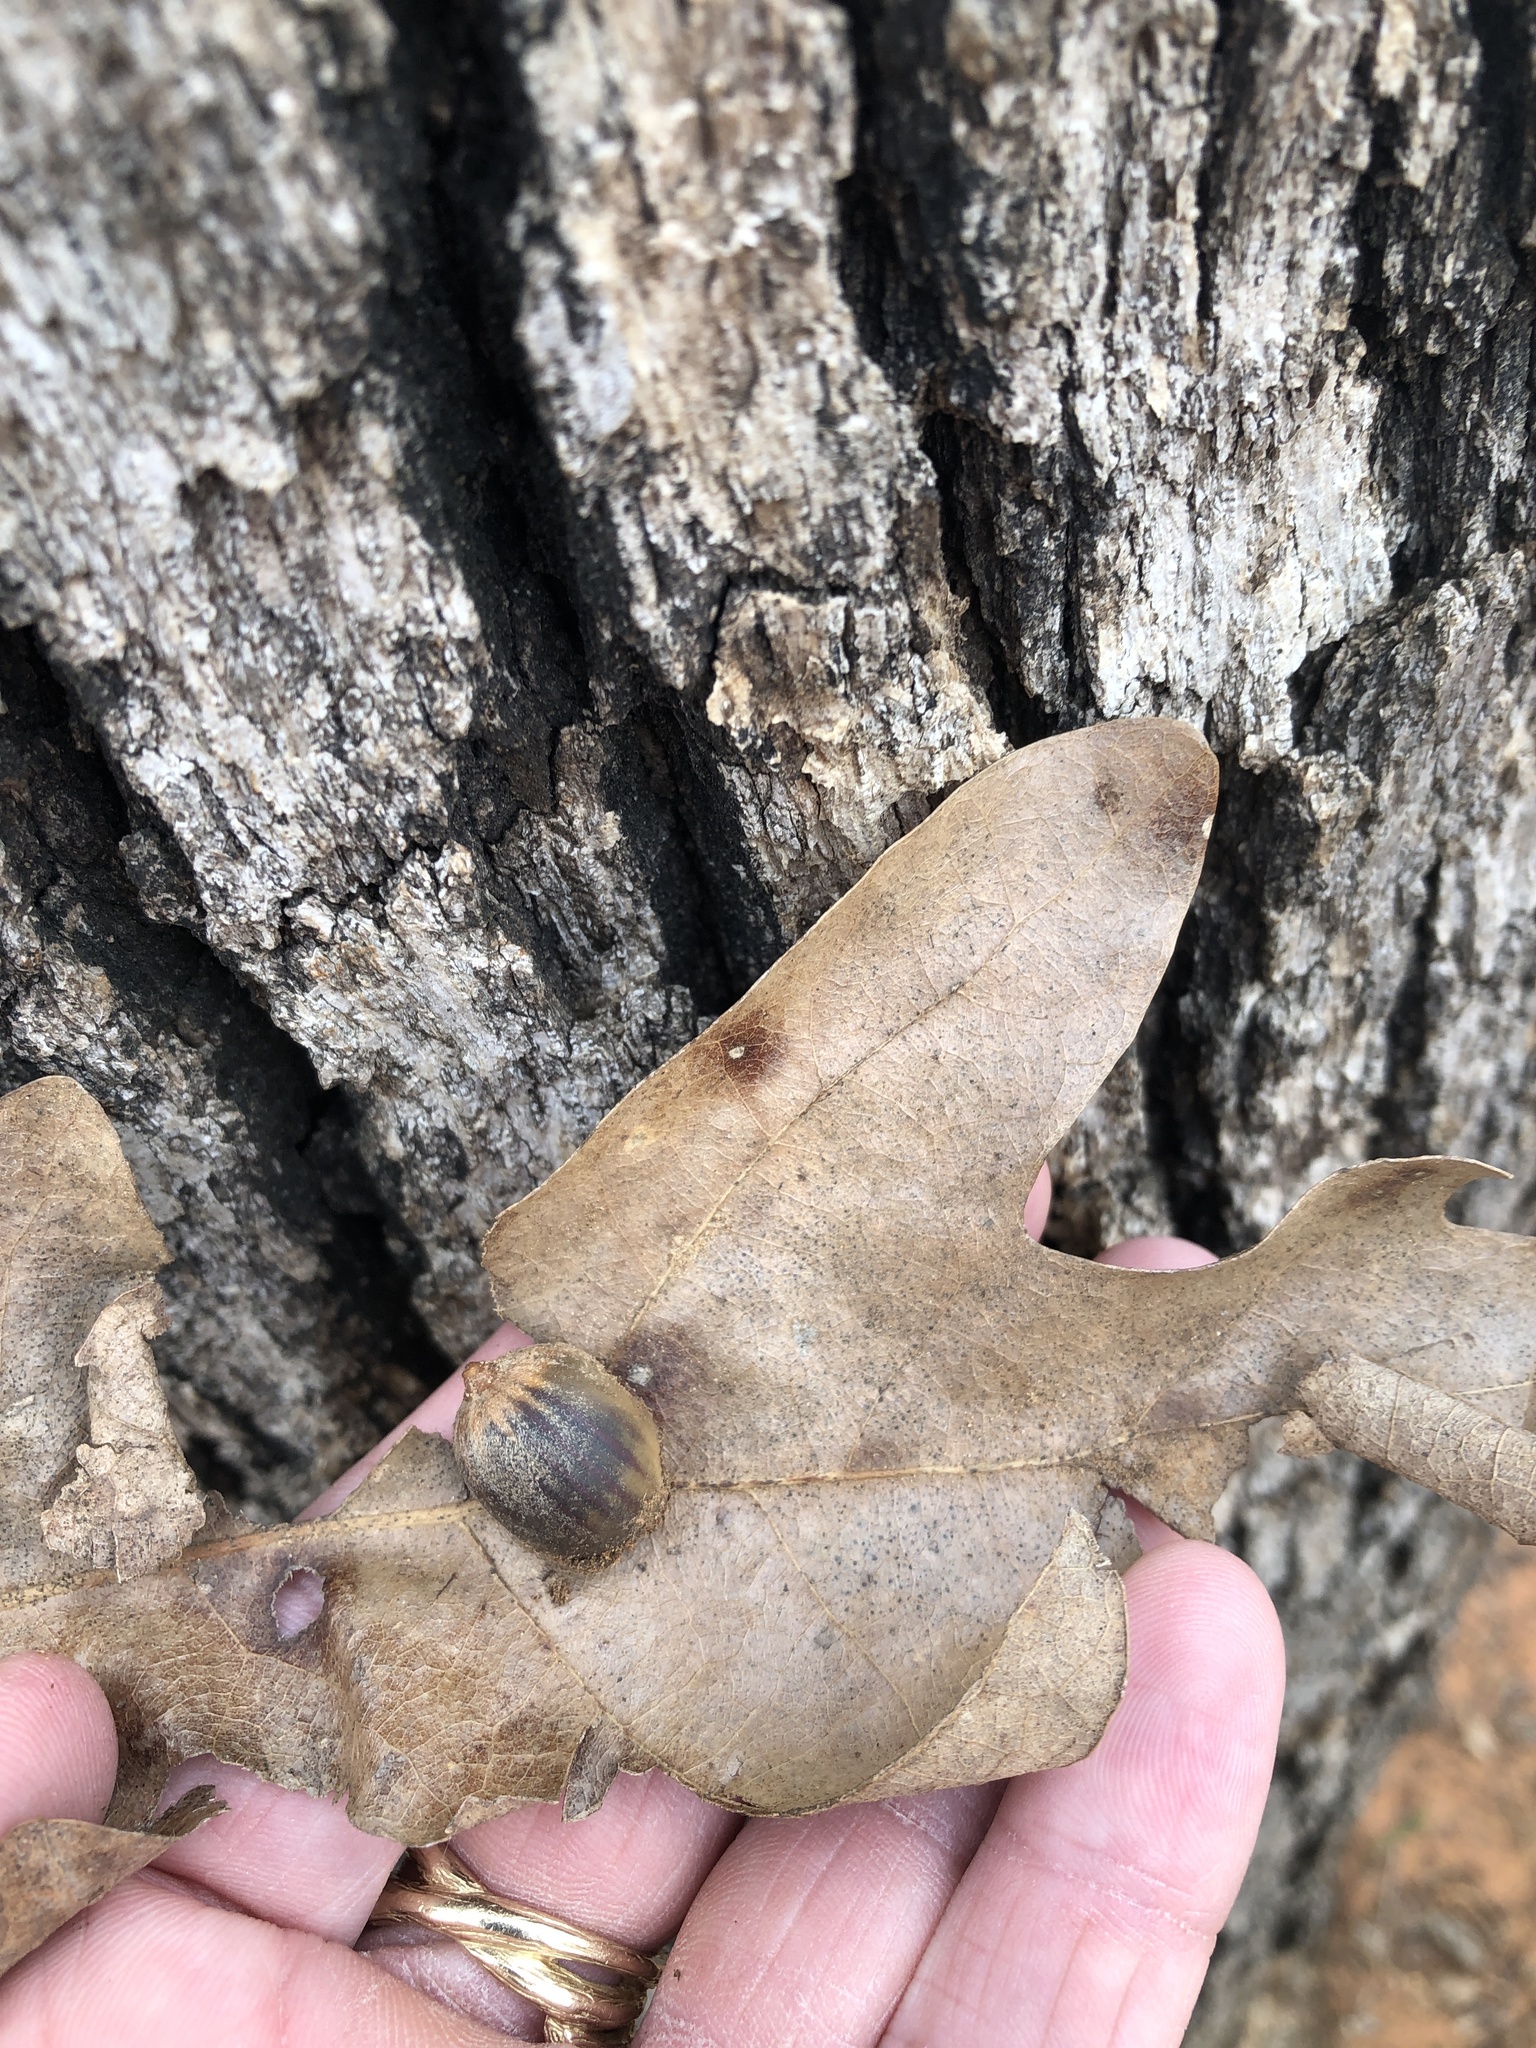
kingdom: Plantae
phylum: Tracheophyta
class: Magnoliopsida
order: Fagales
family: Fagaceae
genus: Quercus
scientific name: Quercus stellata
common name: Post oak
